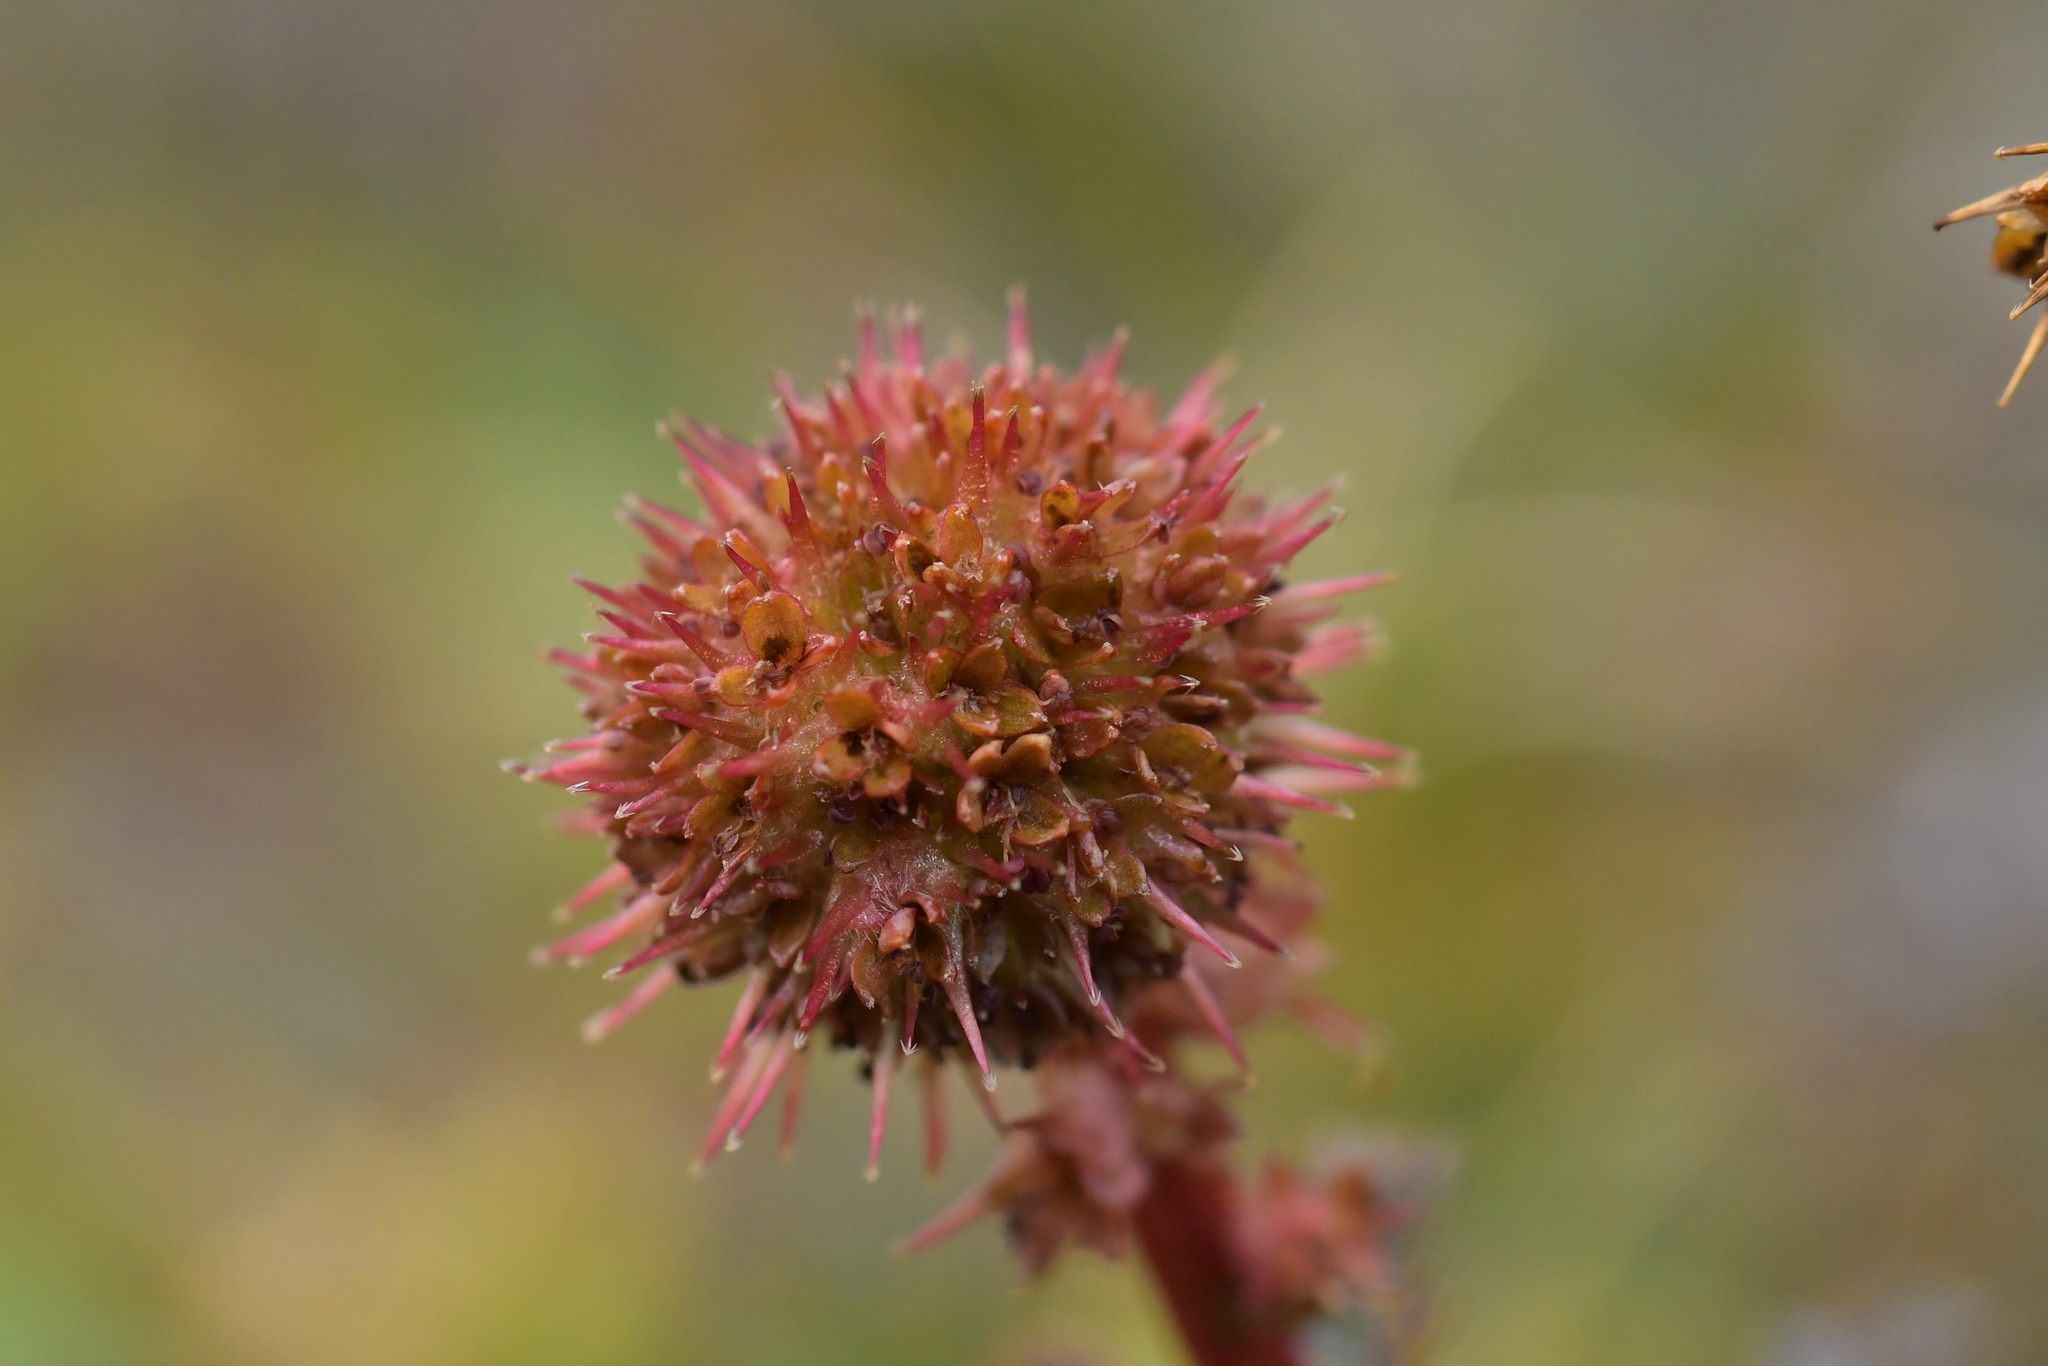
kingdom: Plantae
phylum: Tracheophyta
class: Magnoliopsida
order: Rosales
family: Rosaceae
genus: Acaena
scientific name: Acaena saccaticupula
